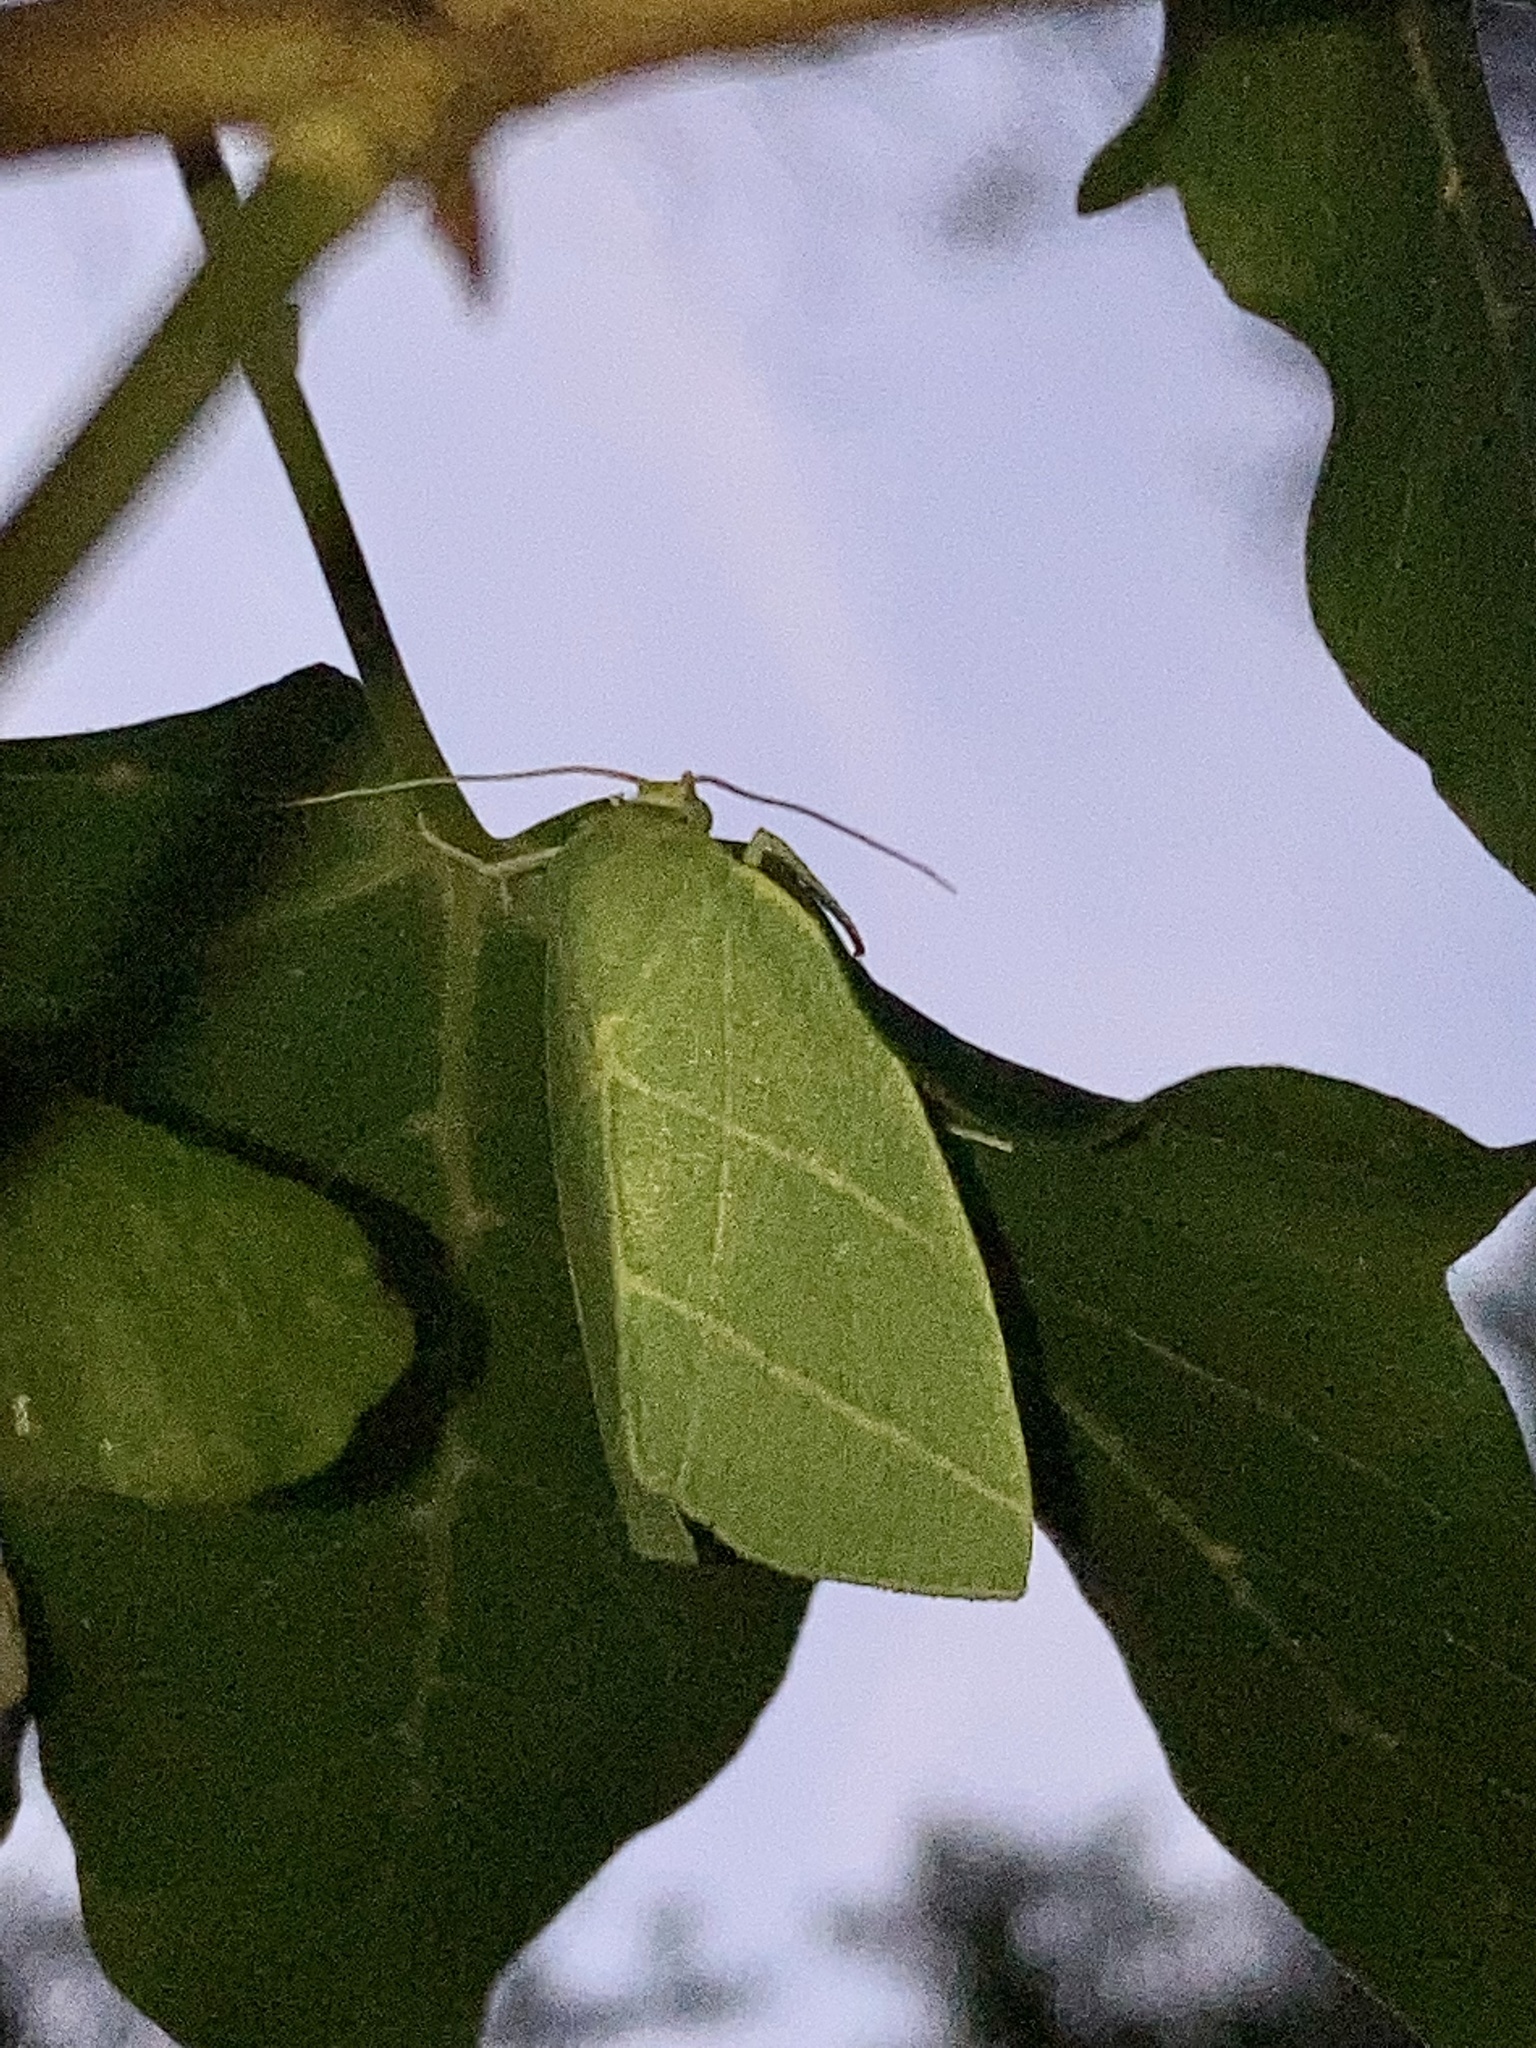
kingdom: Animalia
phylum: Arthropoda
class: Insecta
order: Lepidoptera
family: Nolidae
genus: Bena
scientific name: Bena bicolorana
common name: Scarce silver-lines
